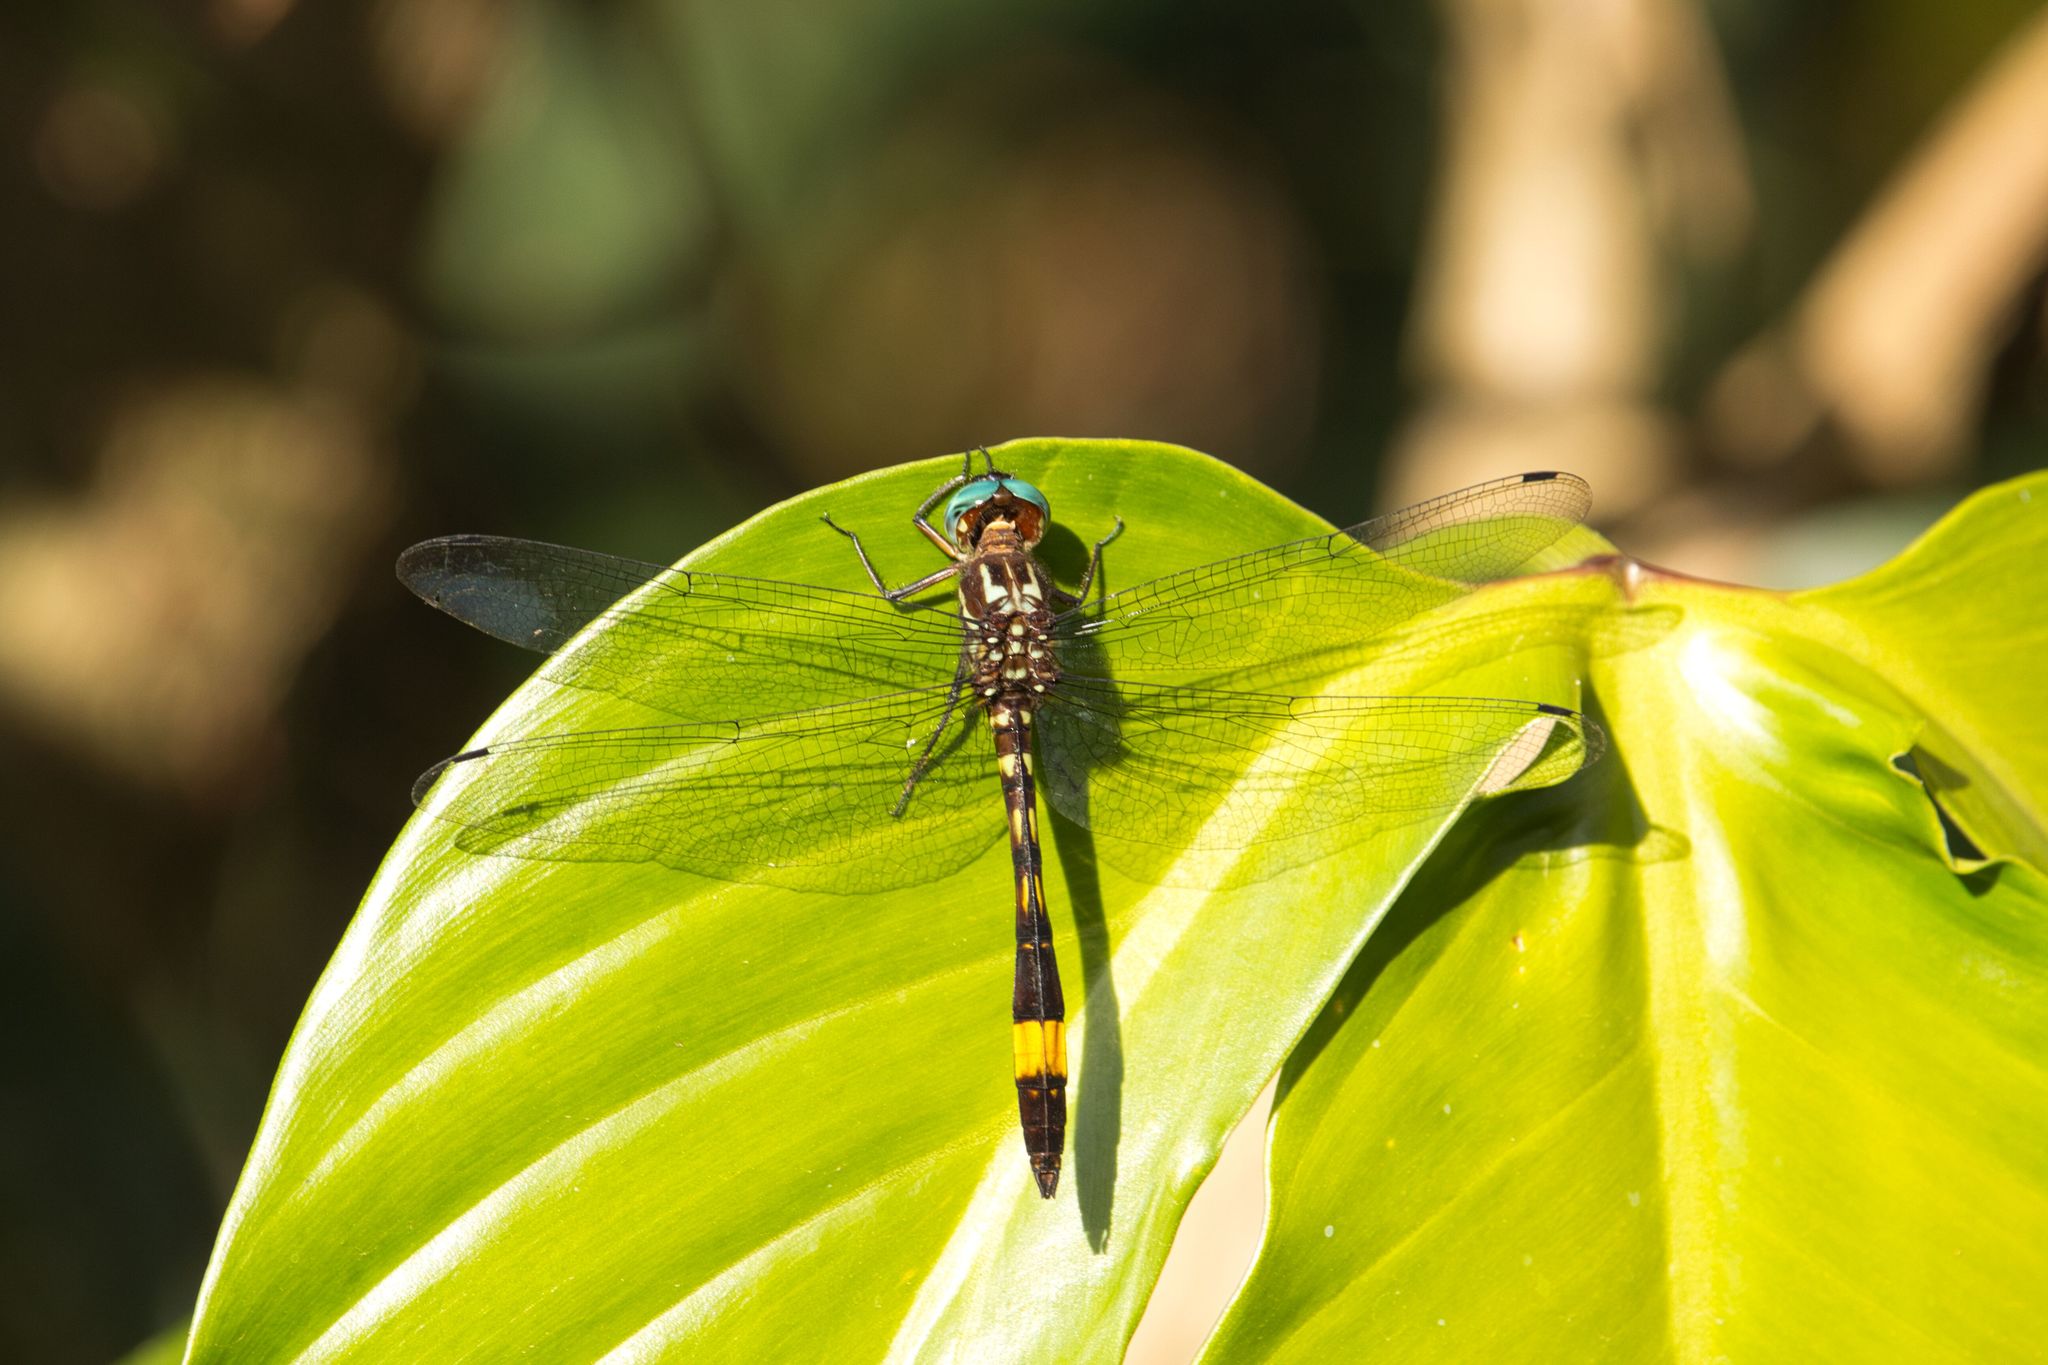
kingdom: Animalia
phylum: Arthropoda
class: Insecta
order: Odonata
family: Libellulidae
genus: Brechmorhoga
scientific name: Brechmorhoga rapax
